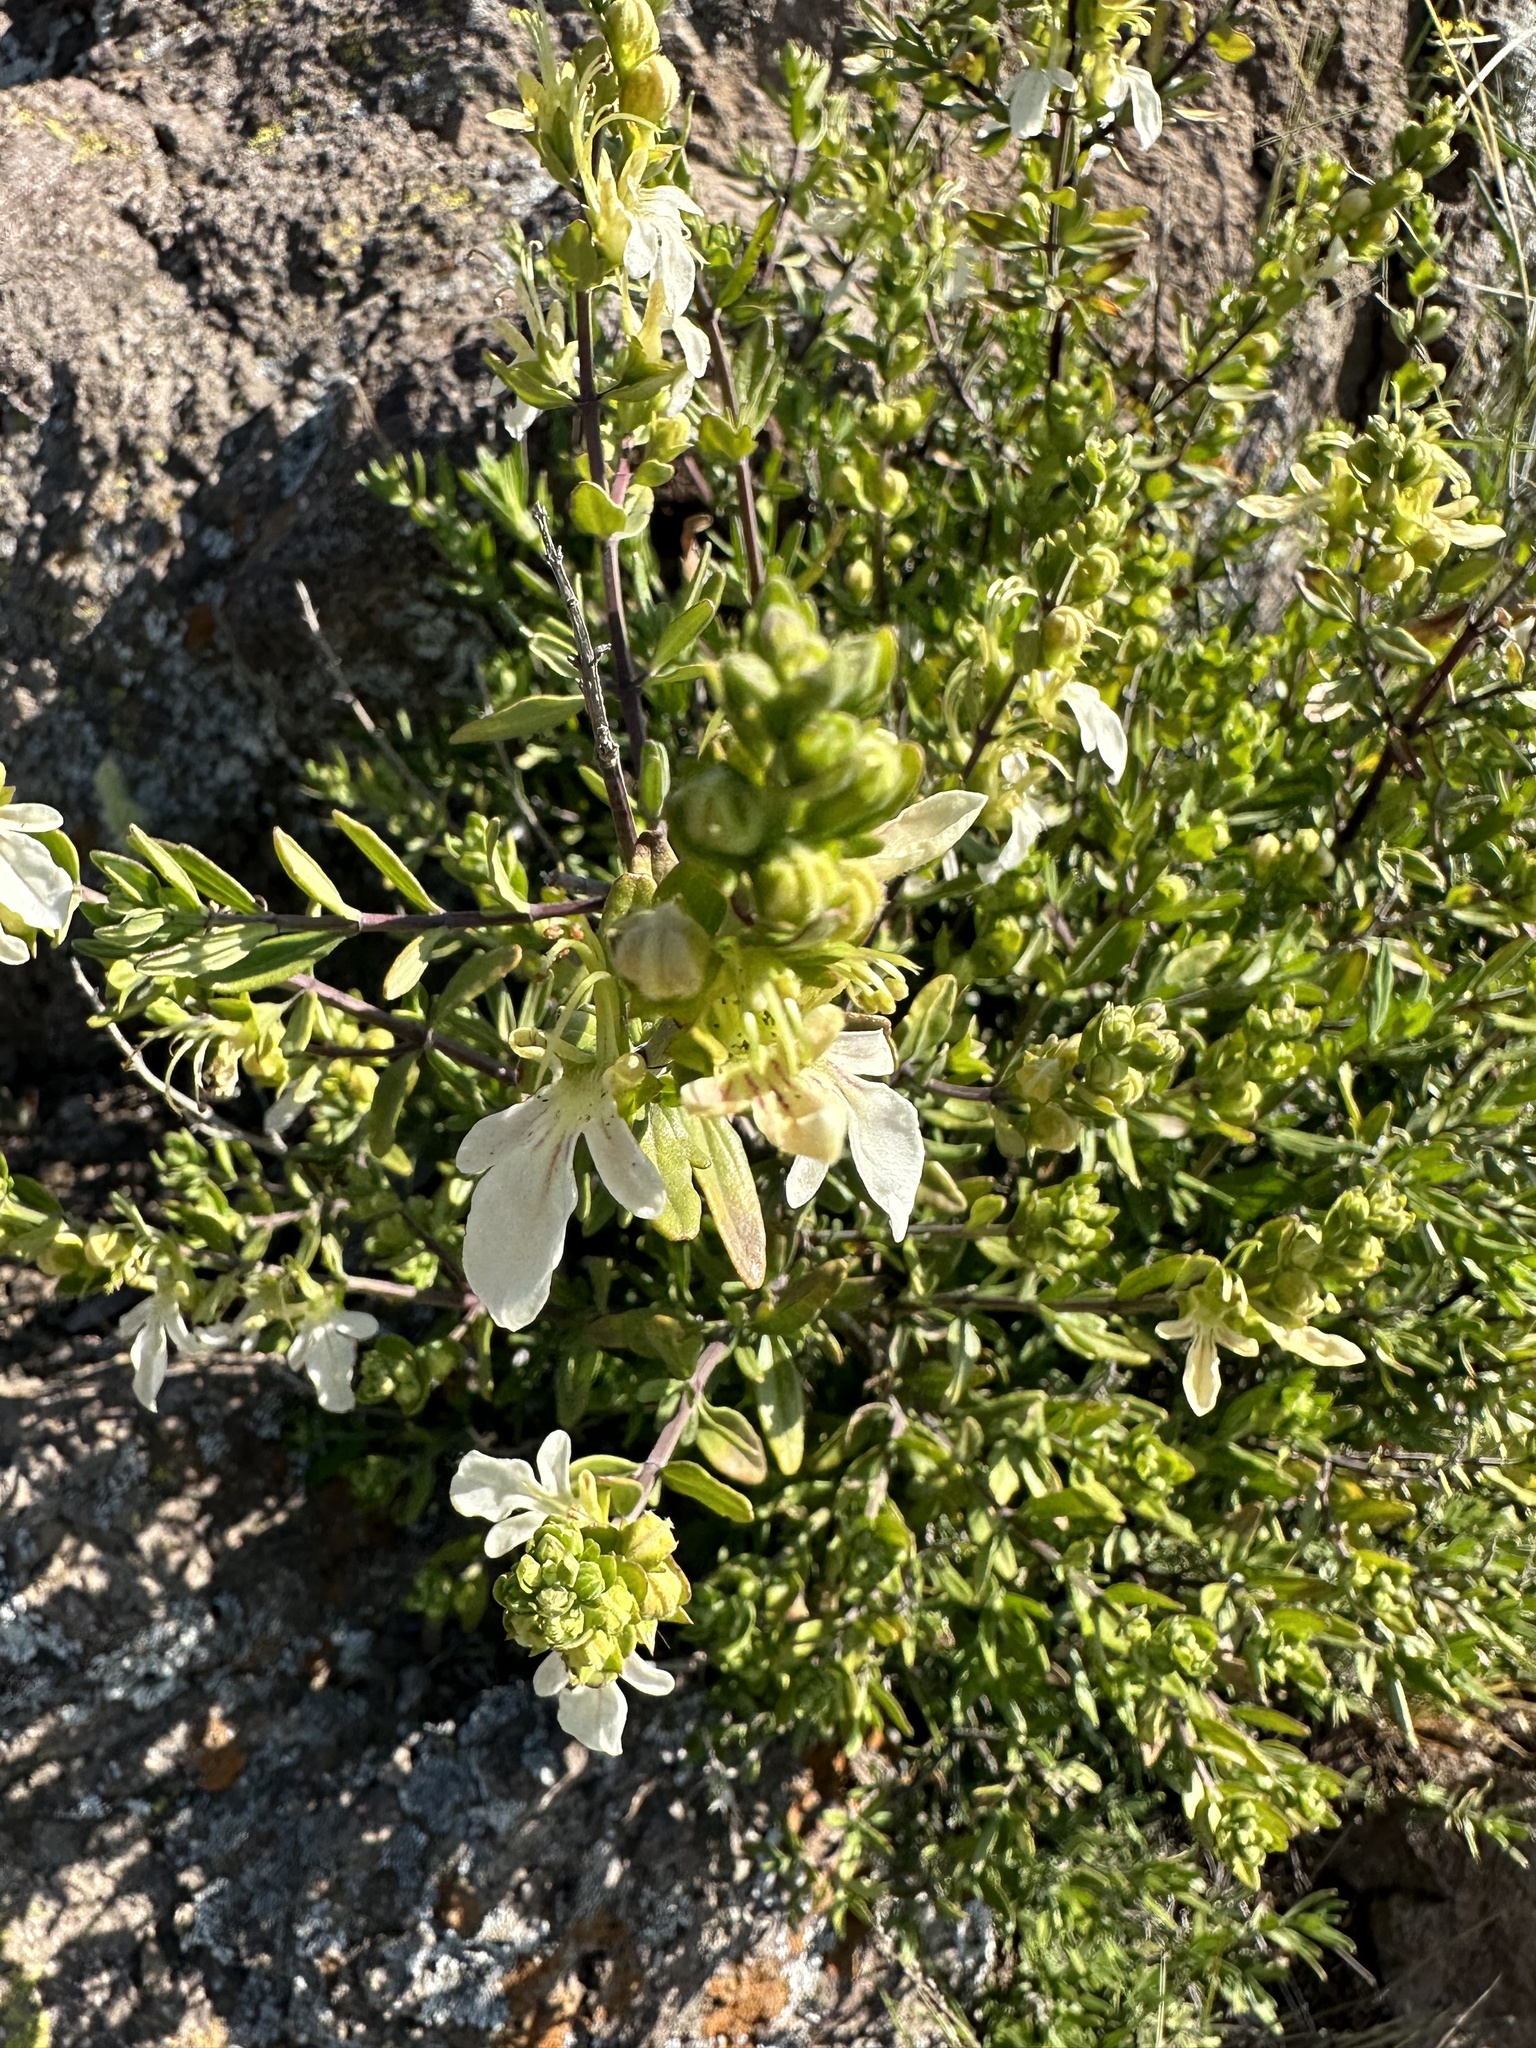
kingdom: Plantae
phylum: Tracheophyta
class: Magnoliopsida
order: Lamiales
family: Lamiaceae
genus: Teucrium
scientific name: Teucrium bicolor
